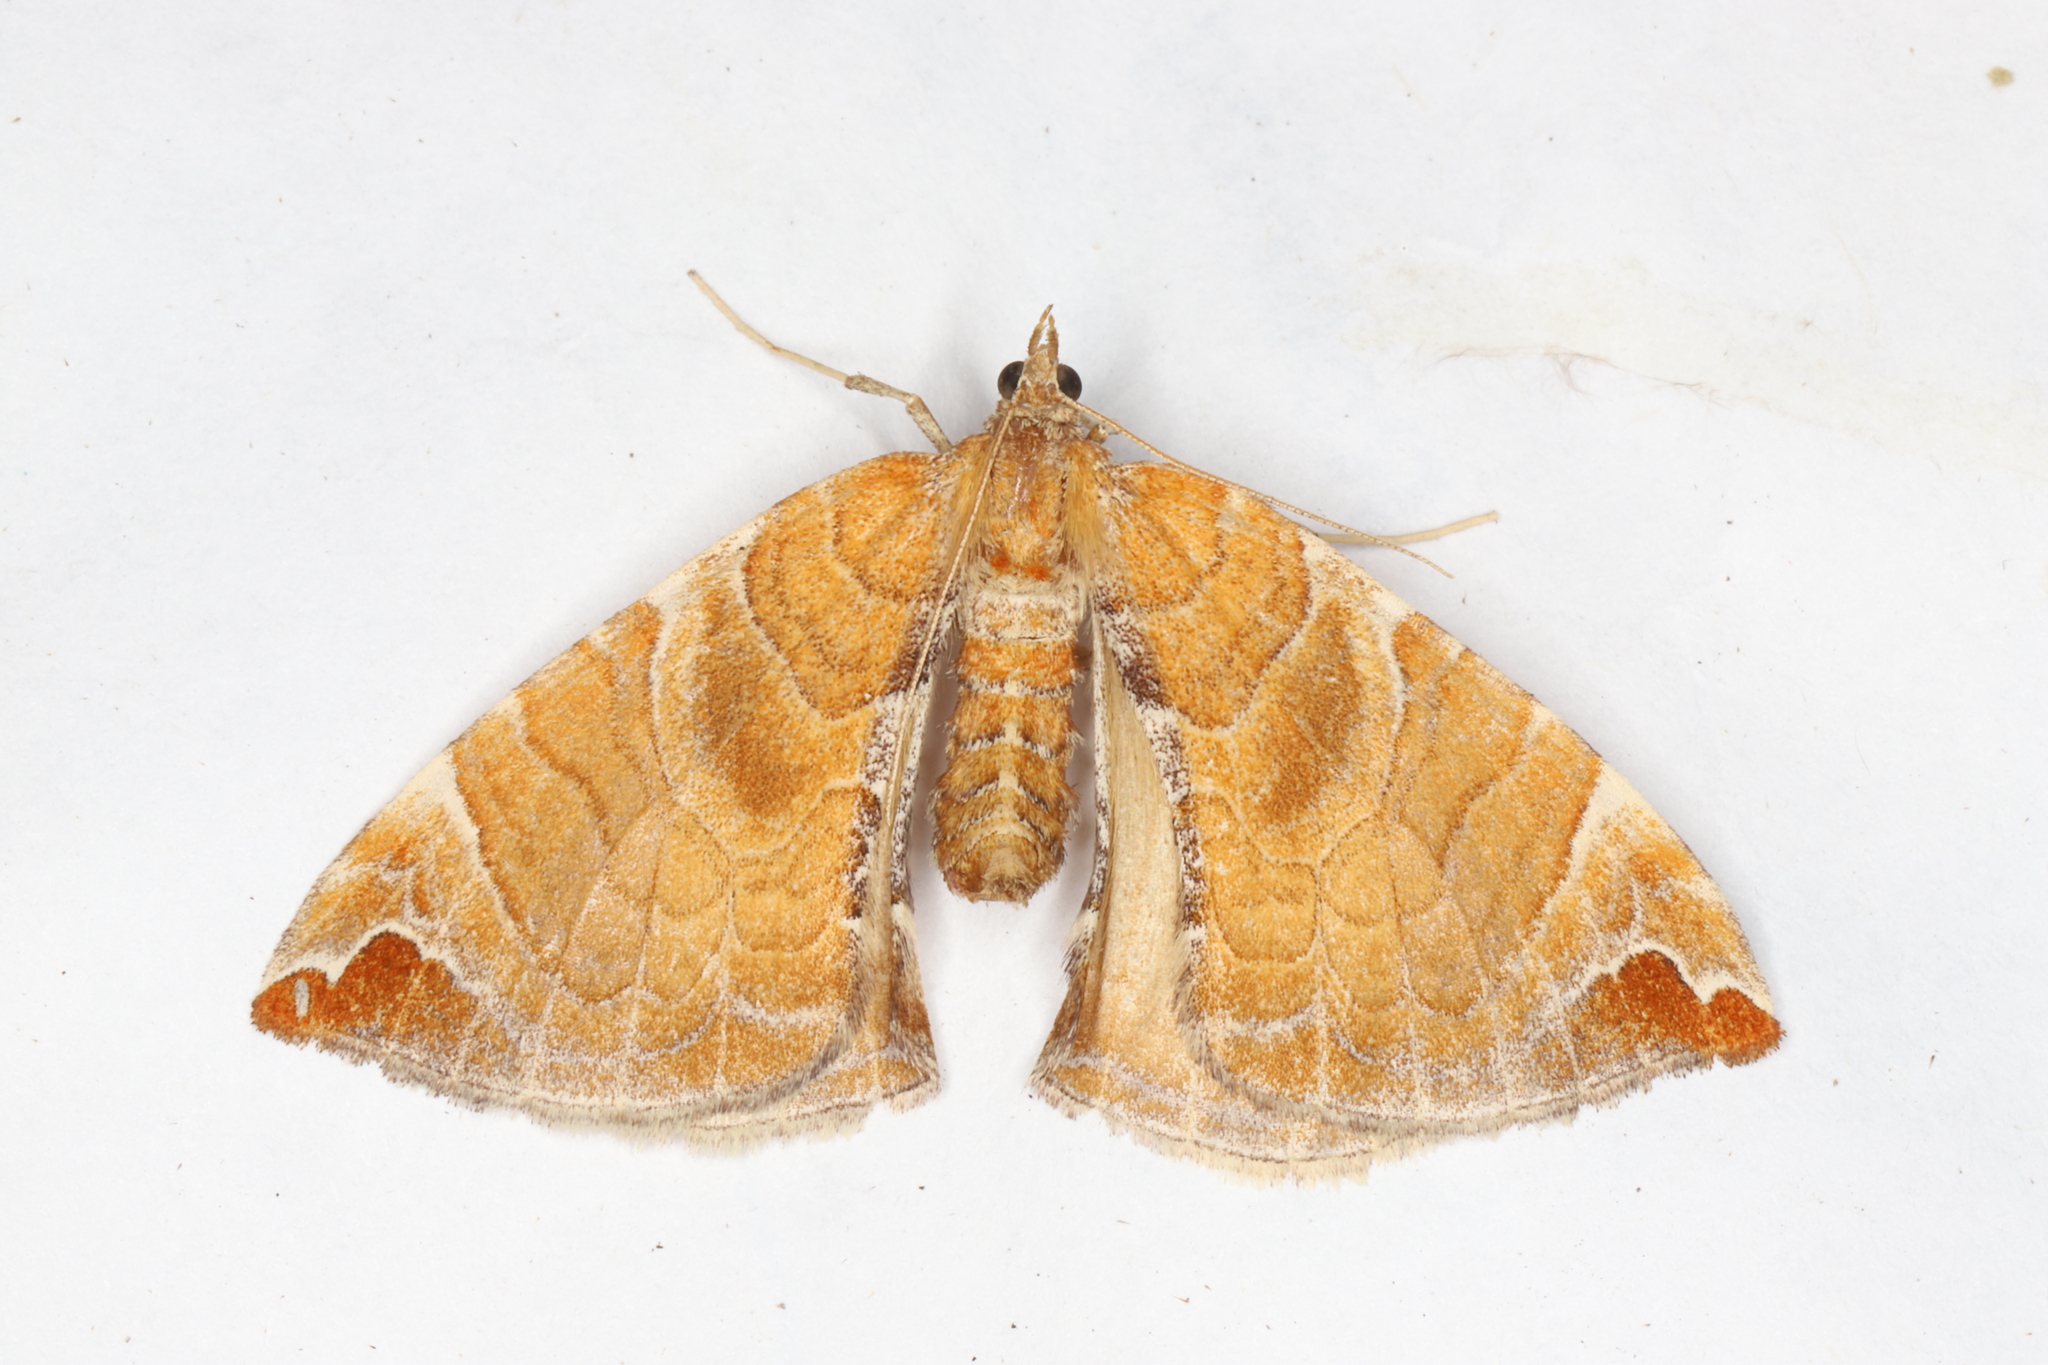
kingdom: Animalia
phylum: Arthropoda
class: Insecta
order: Lepidoptera
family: Geometridae
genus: Eulithis
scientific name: Eulithis molliculata
